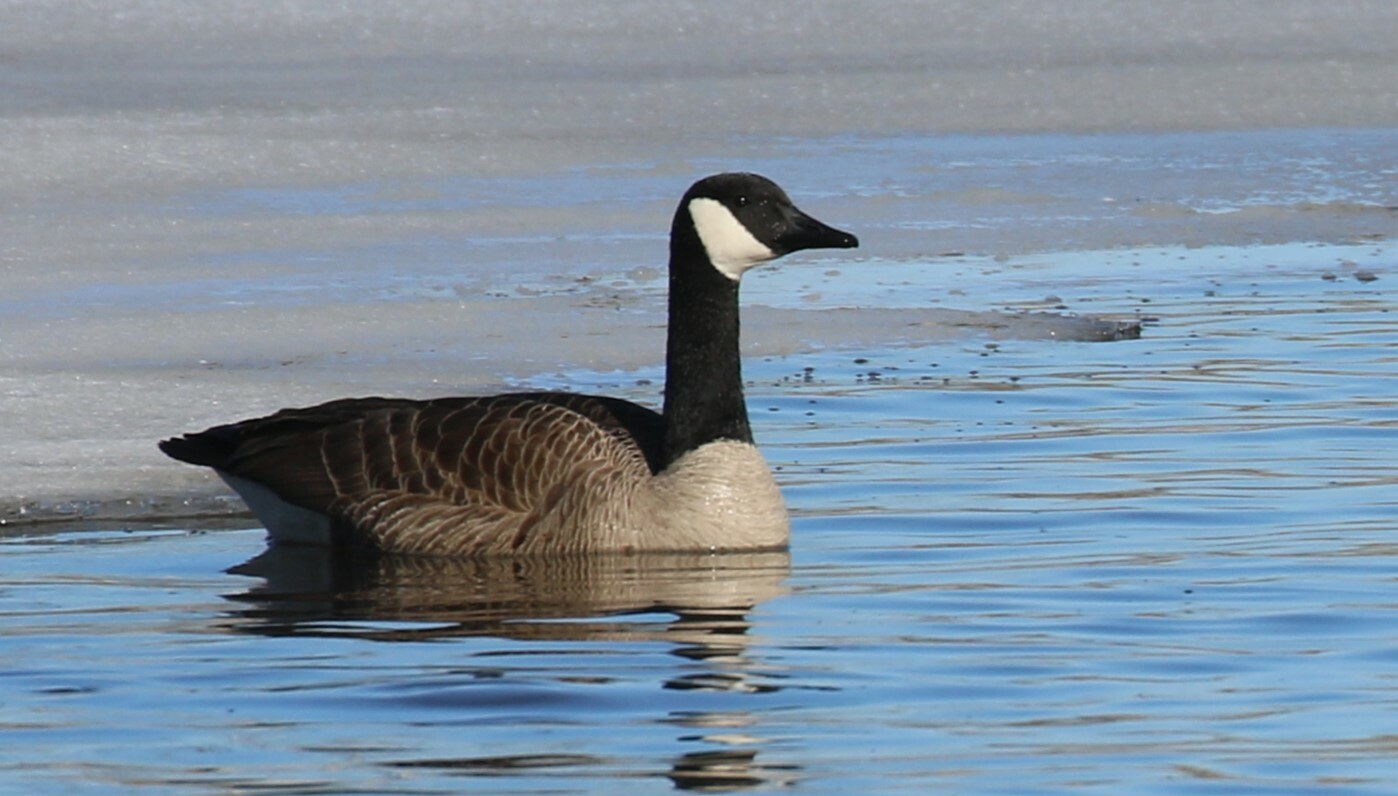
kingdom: Animalia
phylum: Chordata
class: Aves
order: Anseriformes
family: Anatidae
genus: Branta
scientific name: Branta canadensis
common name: Canada goose
